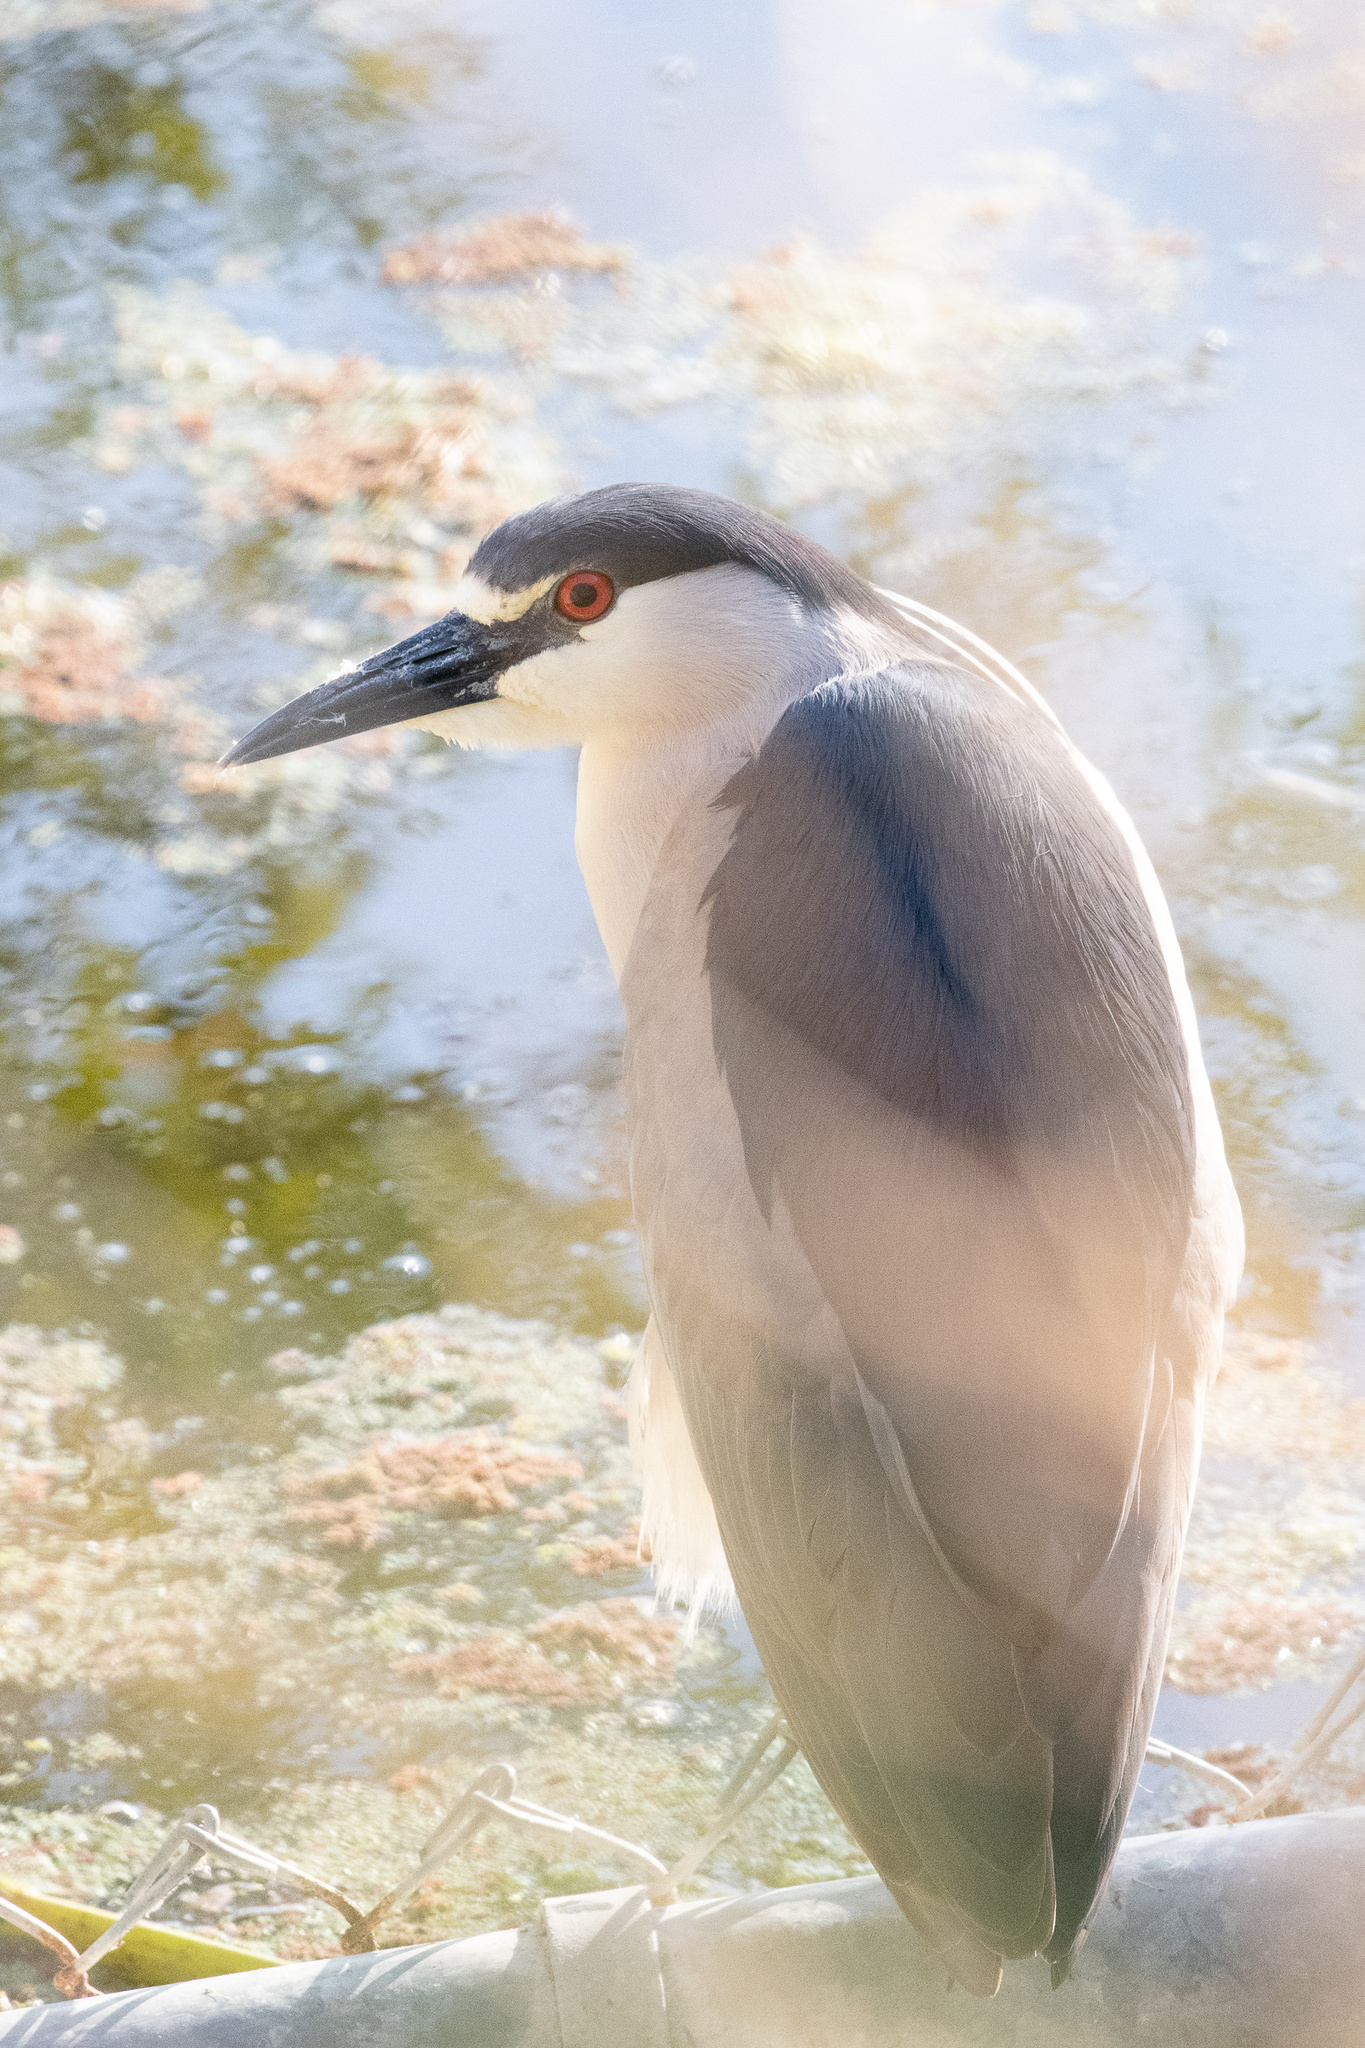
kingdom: Animalia
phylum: Chordata
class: Aves
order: Pelecaniformes
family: Ardeidae
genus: Nycticorax
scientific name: Nycticorax nycticorax
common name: Black-crowned night heron
